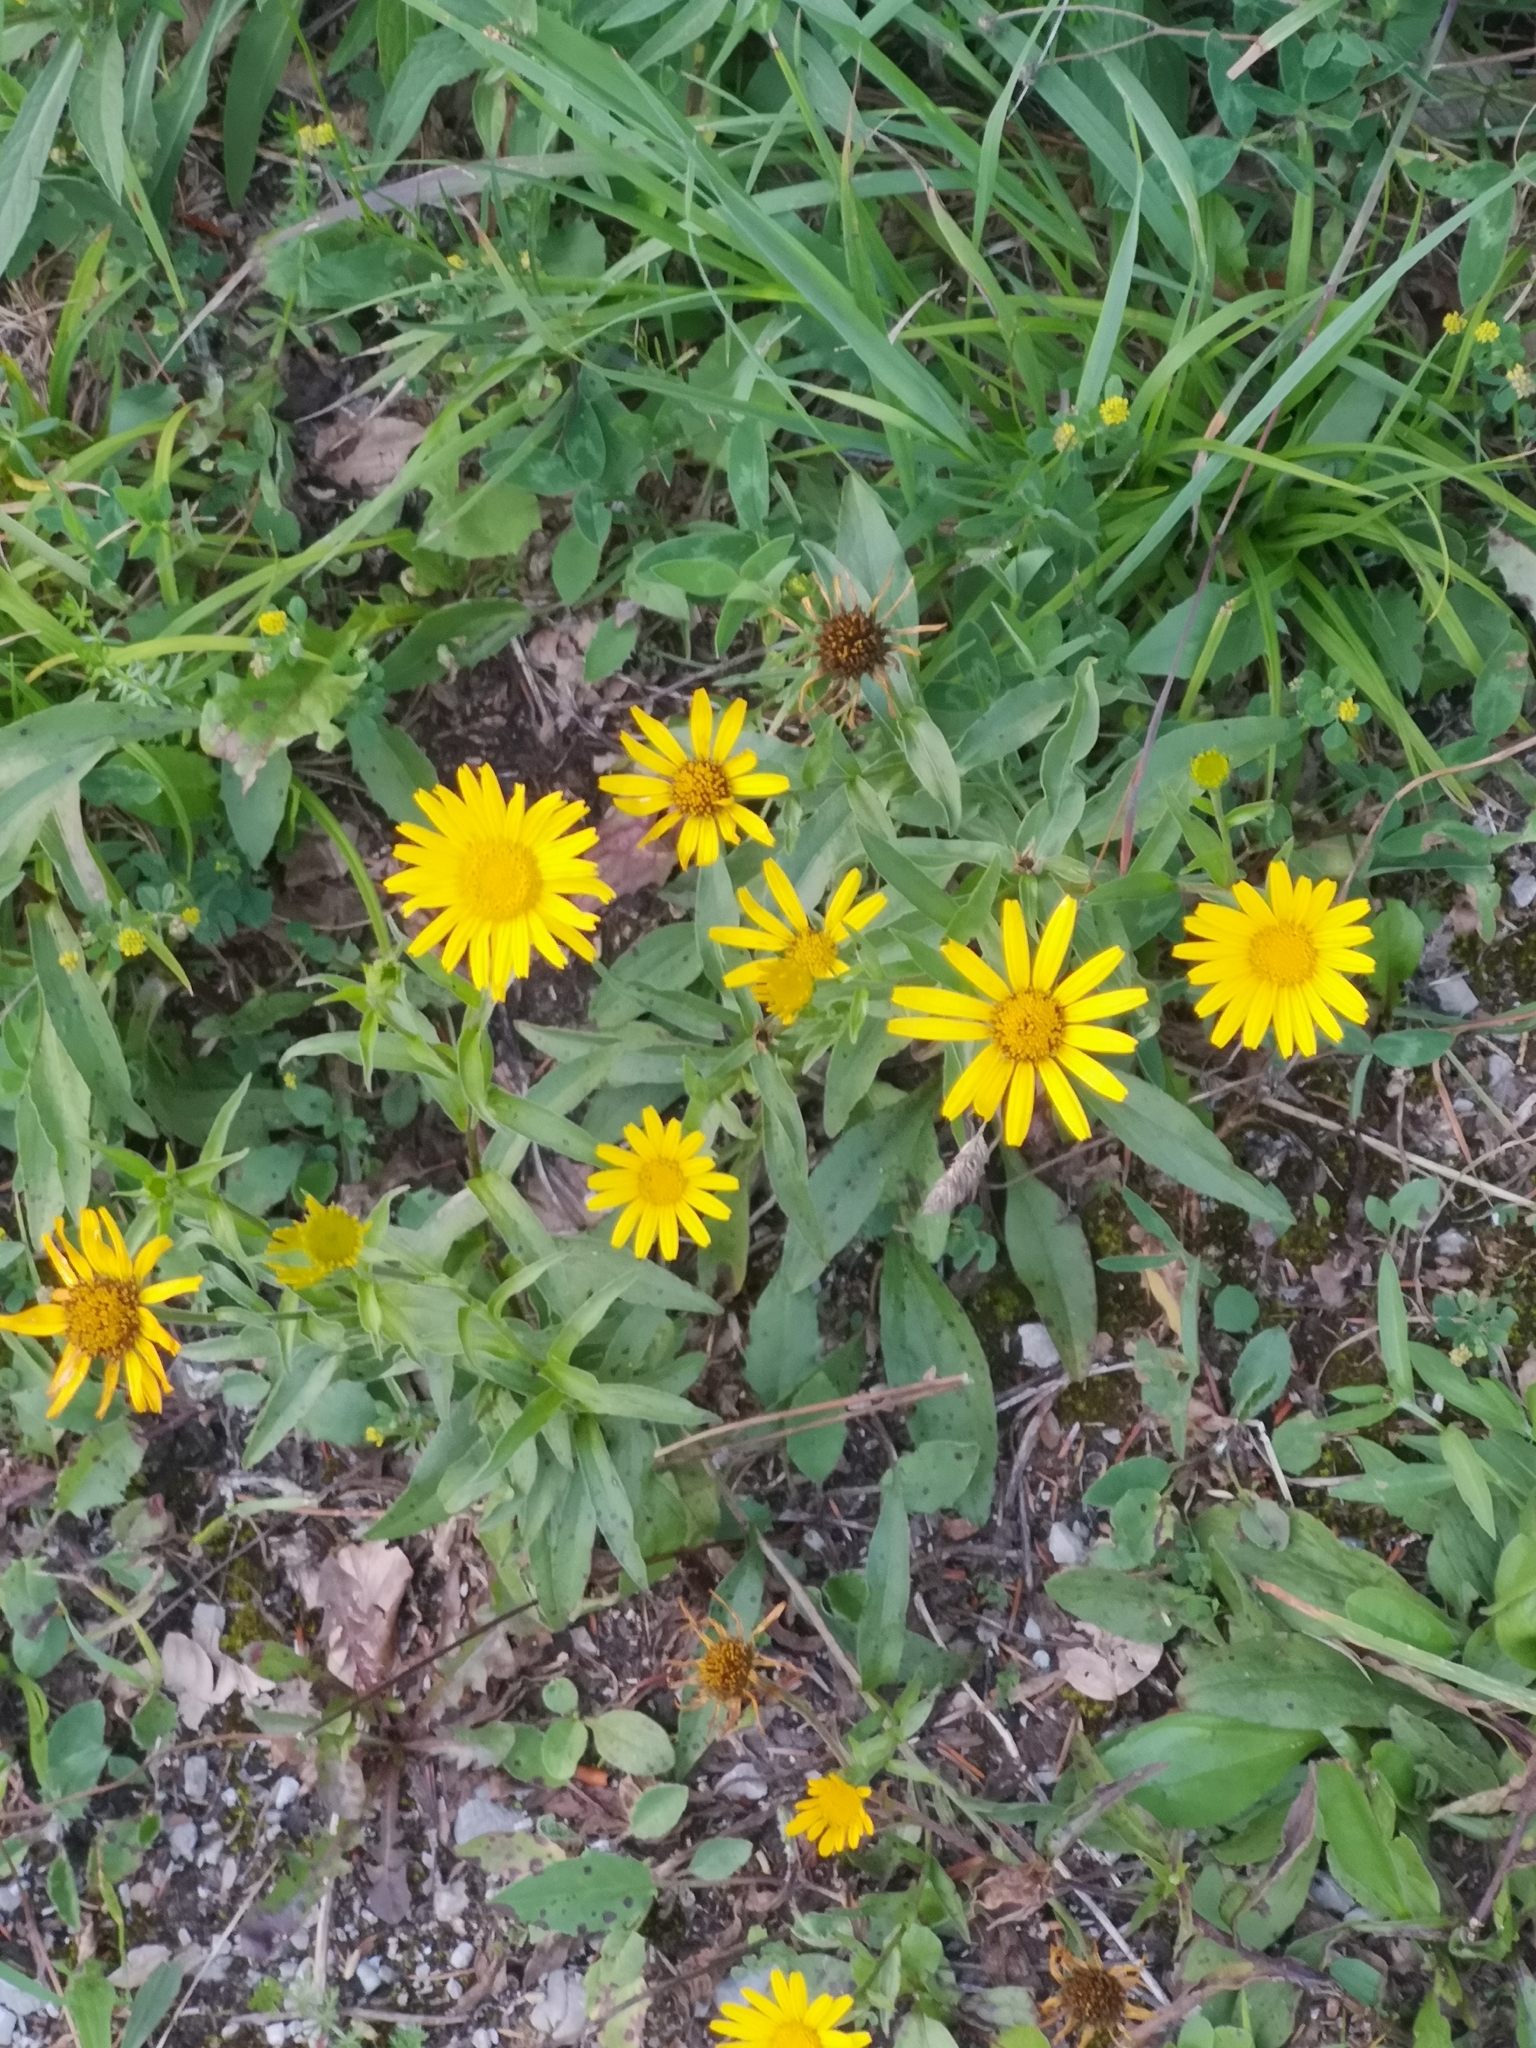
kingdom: Plantae
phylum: Tracheophyta
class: Magnoliopsida
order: Asterales
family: Asteraceae
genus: Buphthalmum
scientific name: Buphthalmum salicifolium
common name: Willow-leaved yellow-oxeye
